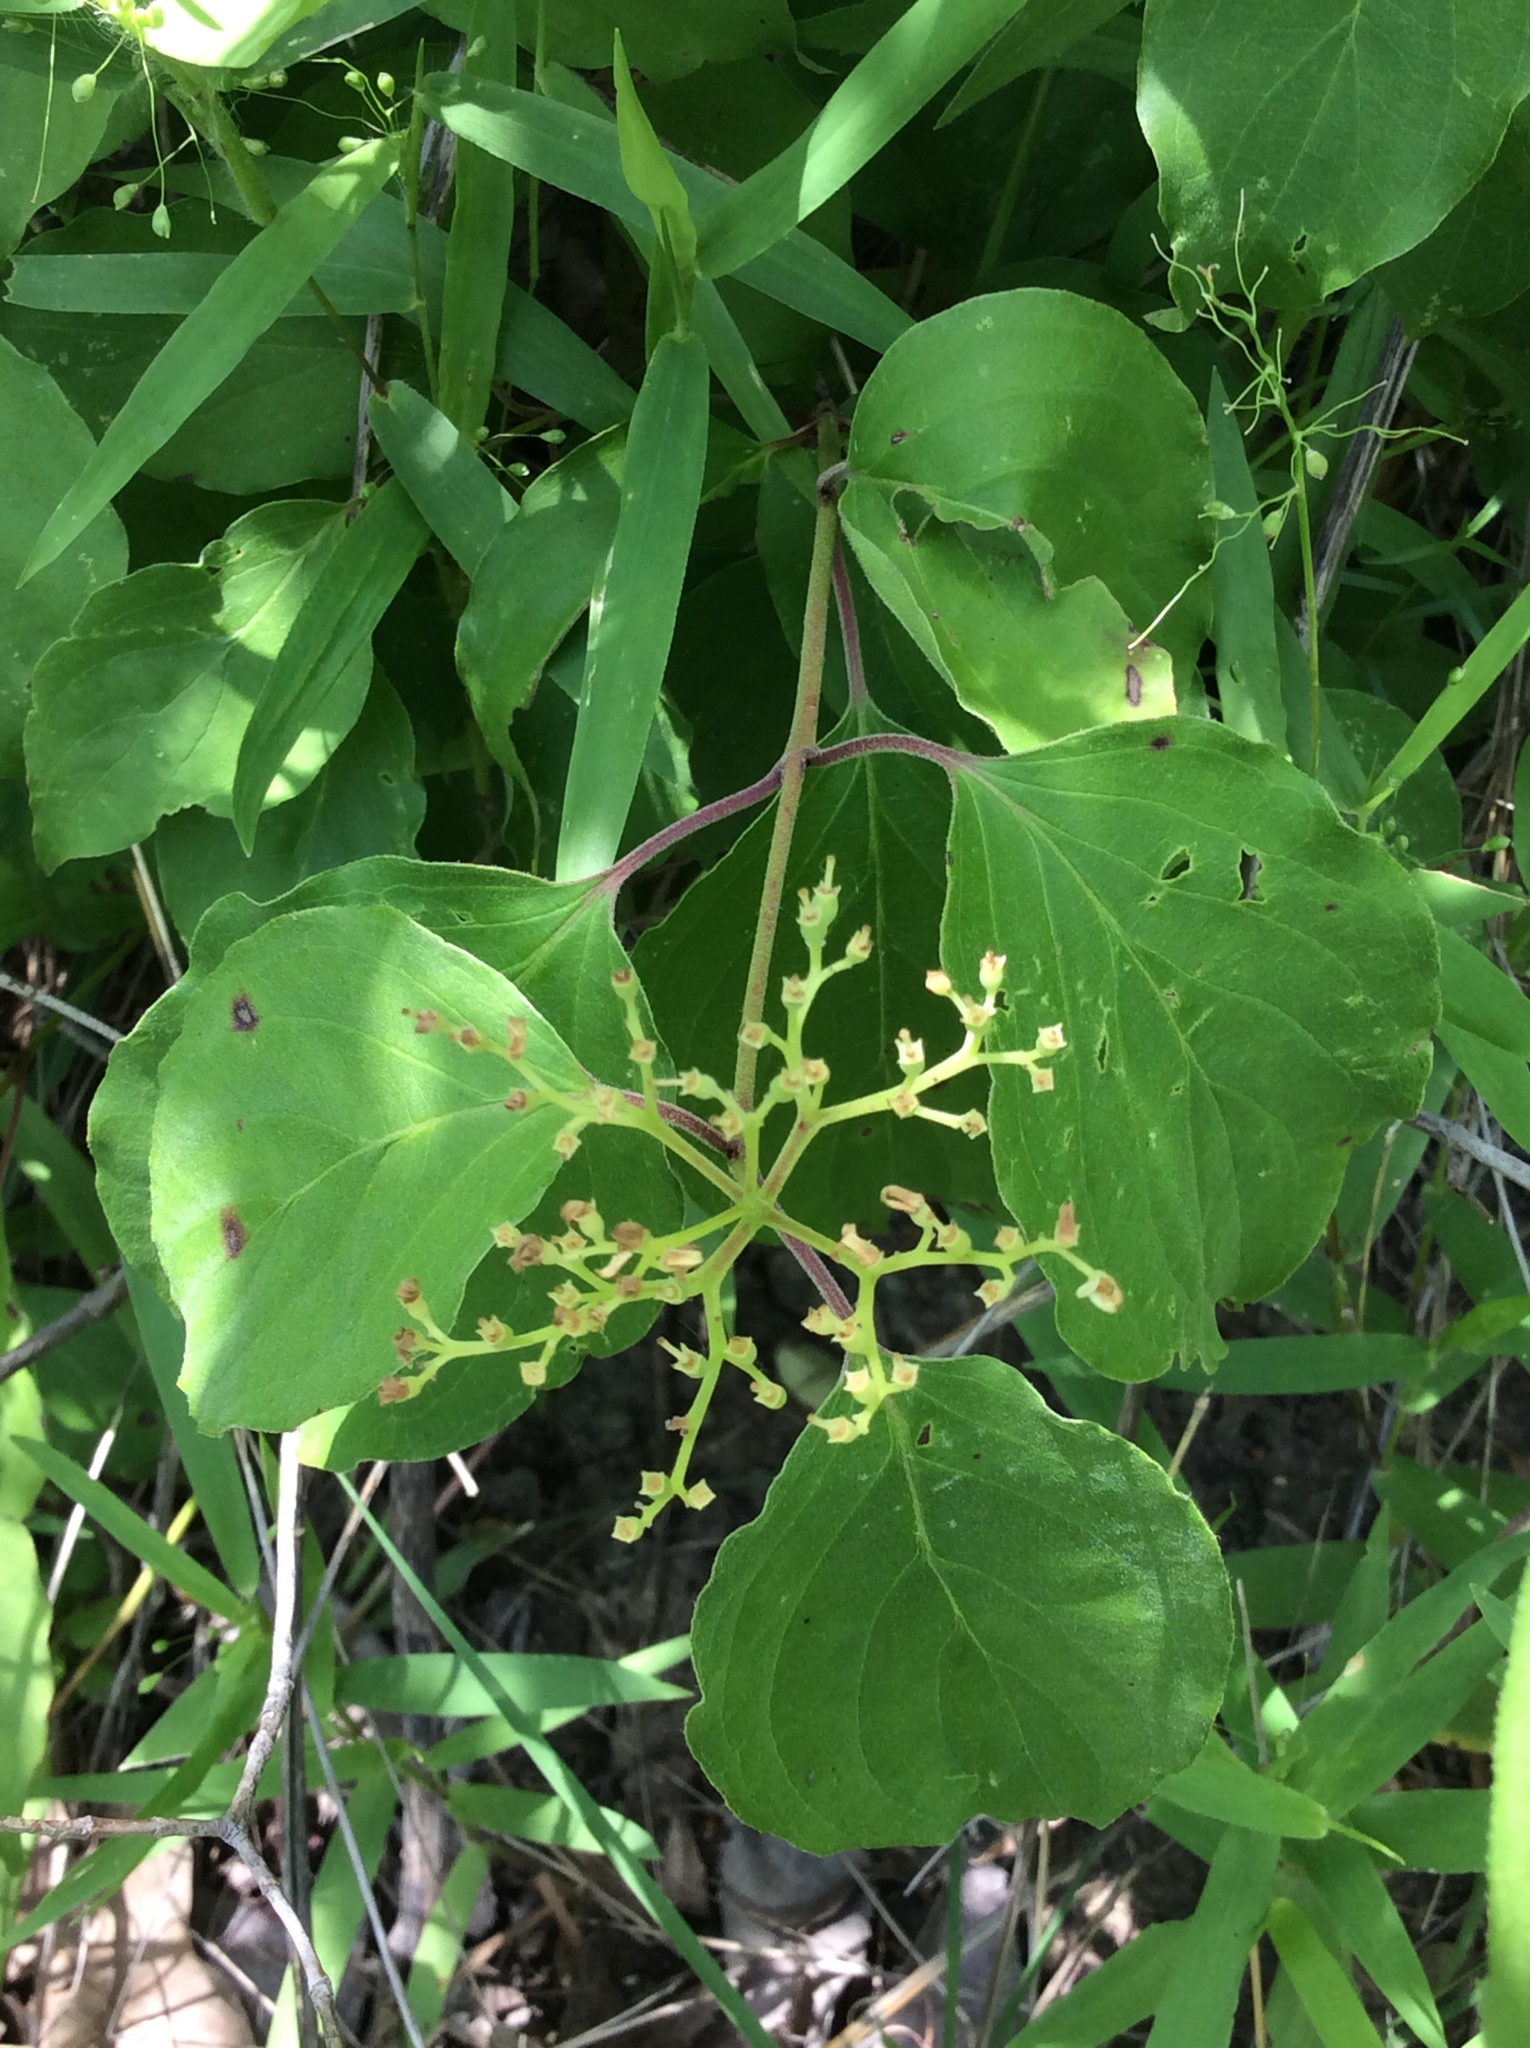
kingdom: Plantae
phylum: Tracheophyta
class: Magnoliopsida
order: Cornales
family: Cornaceae
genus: Cornus
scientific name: Cornus drummondii
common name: Rough-leaf dogwood
